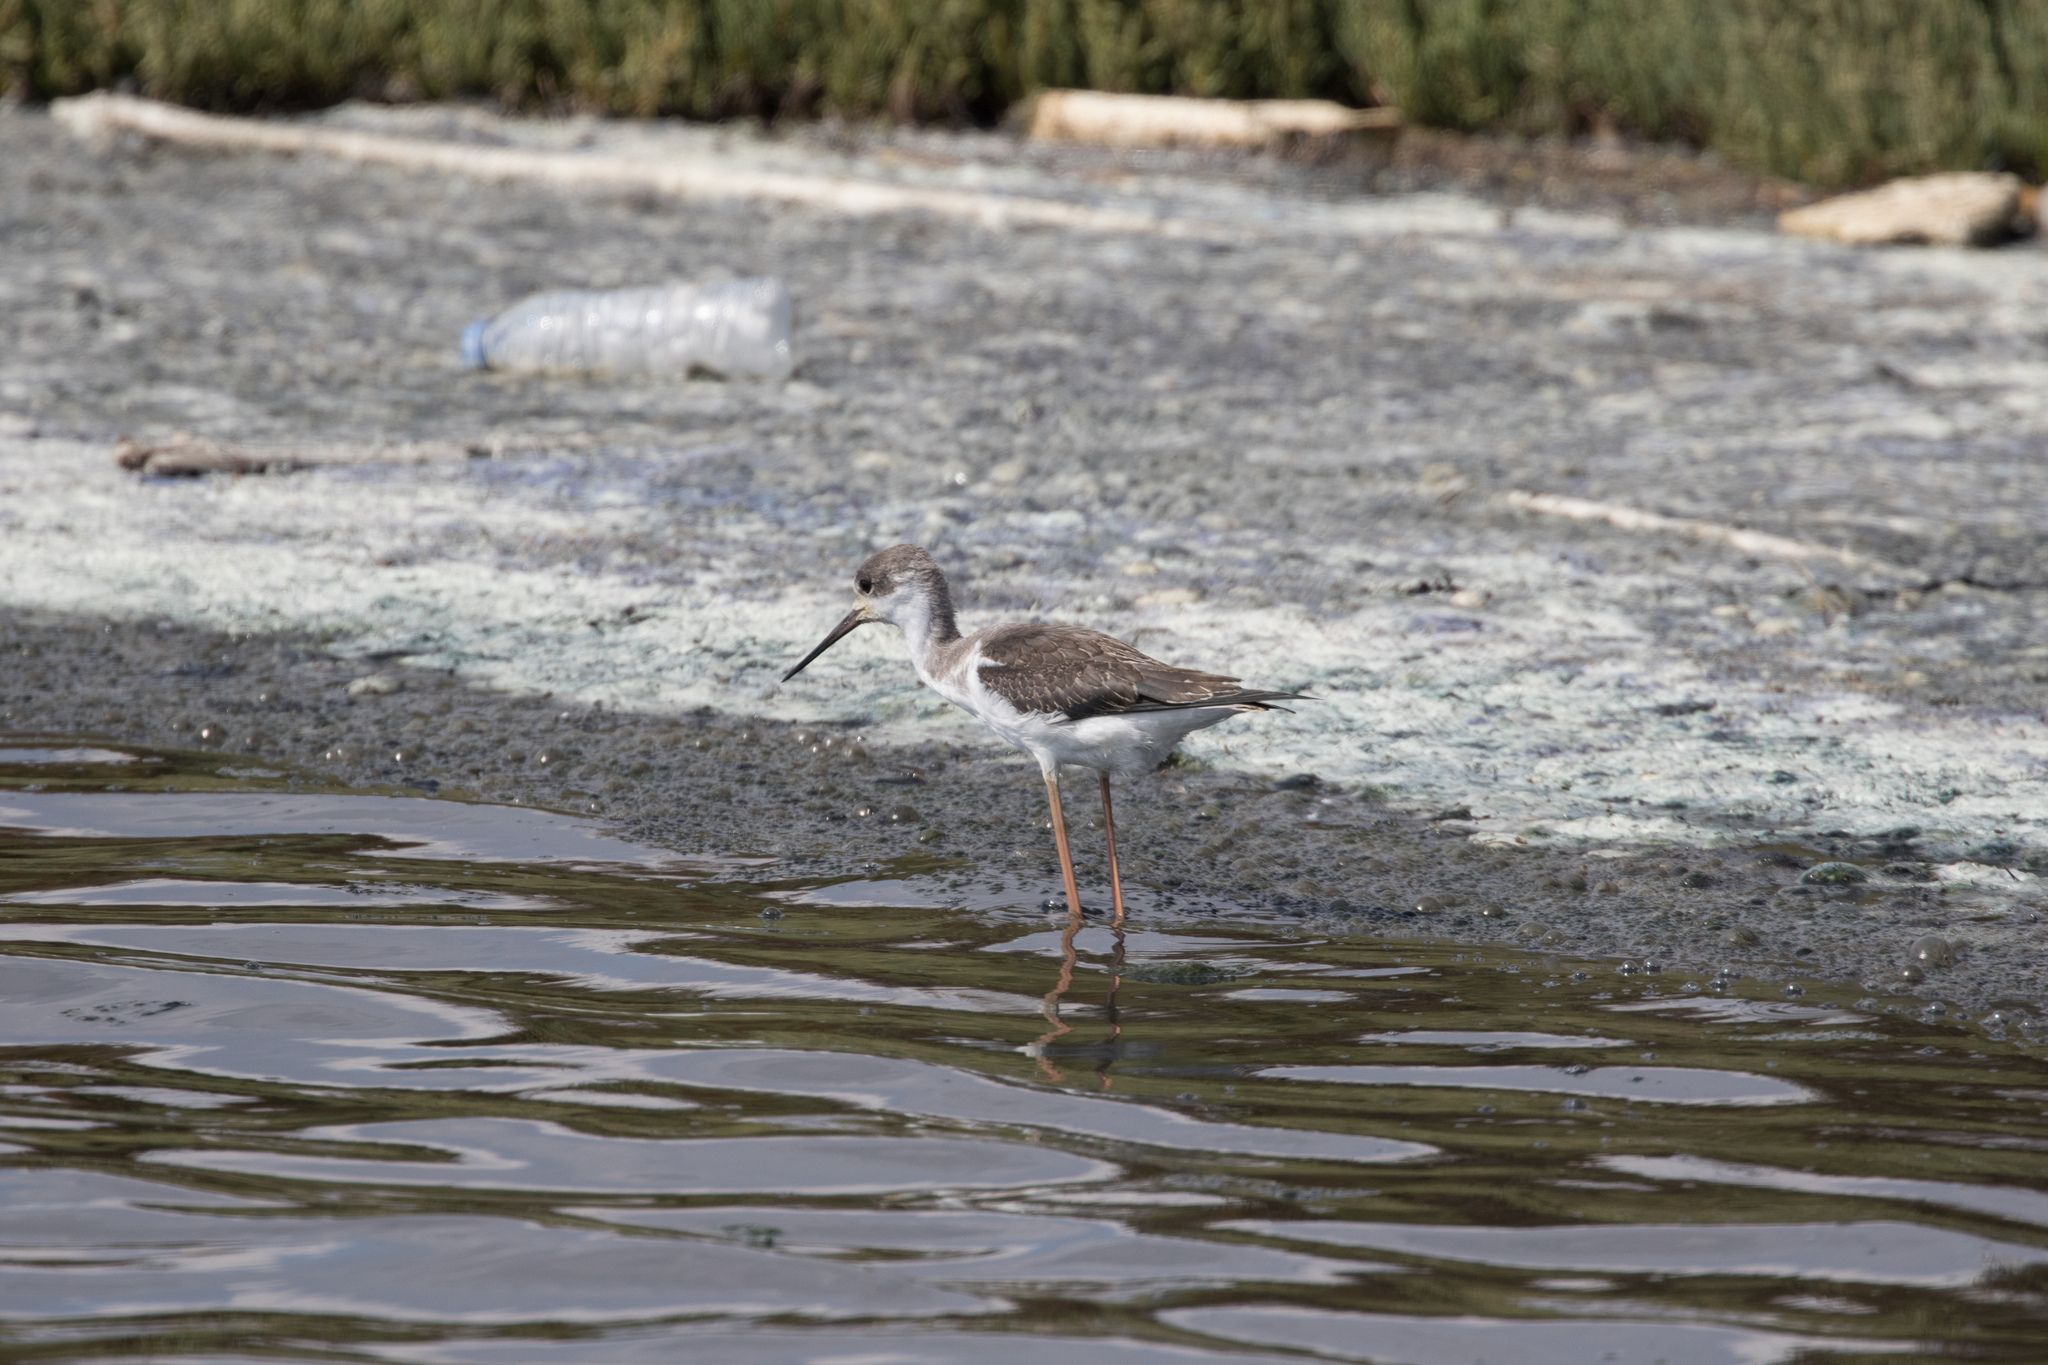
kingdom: Animalia
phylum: Chordata
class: Aves
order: Charadriiformes
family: Recurvirostridae
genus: Himantopus
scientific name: Himantopus himantopus
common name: Black-winged stilt
